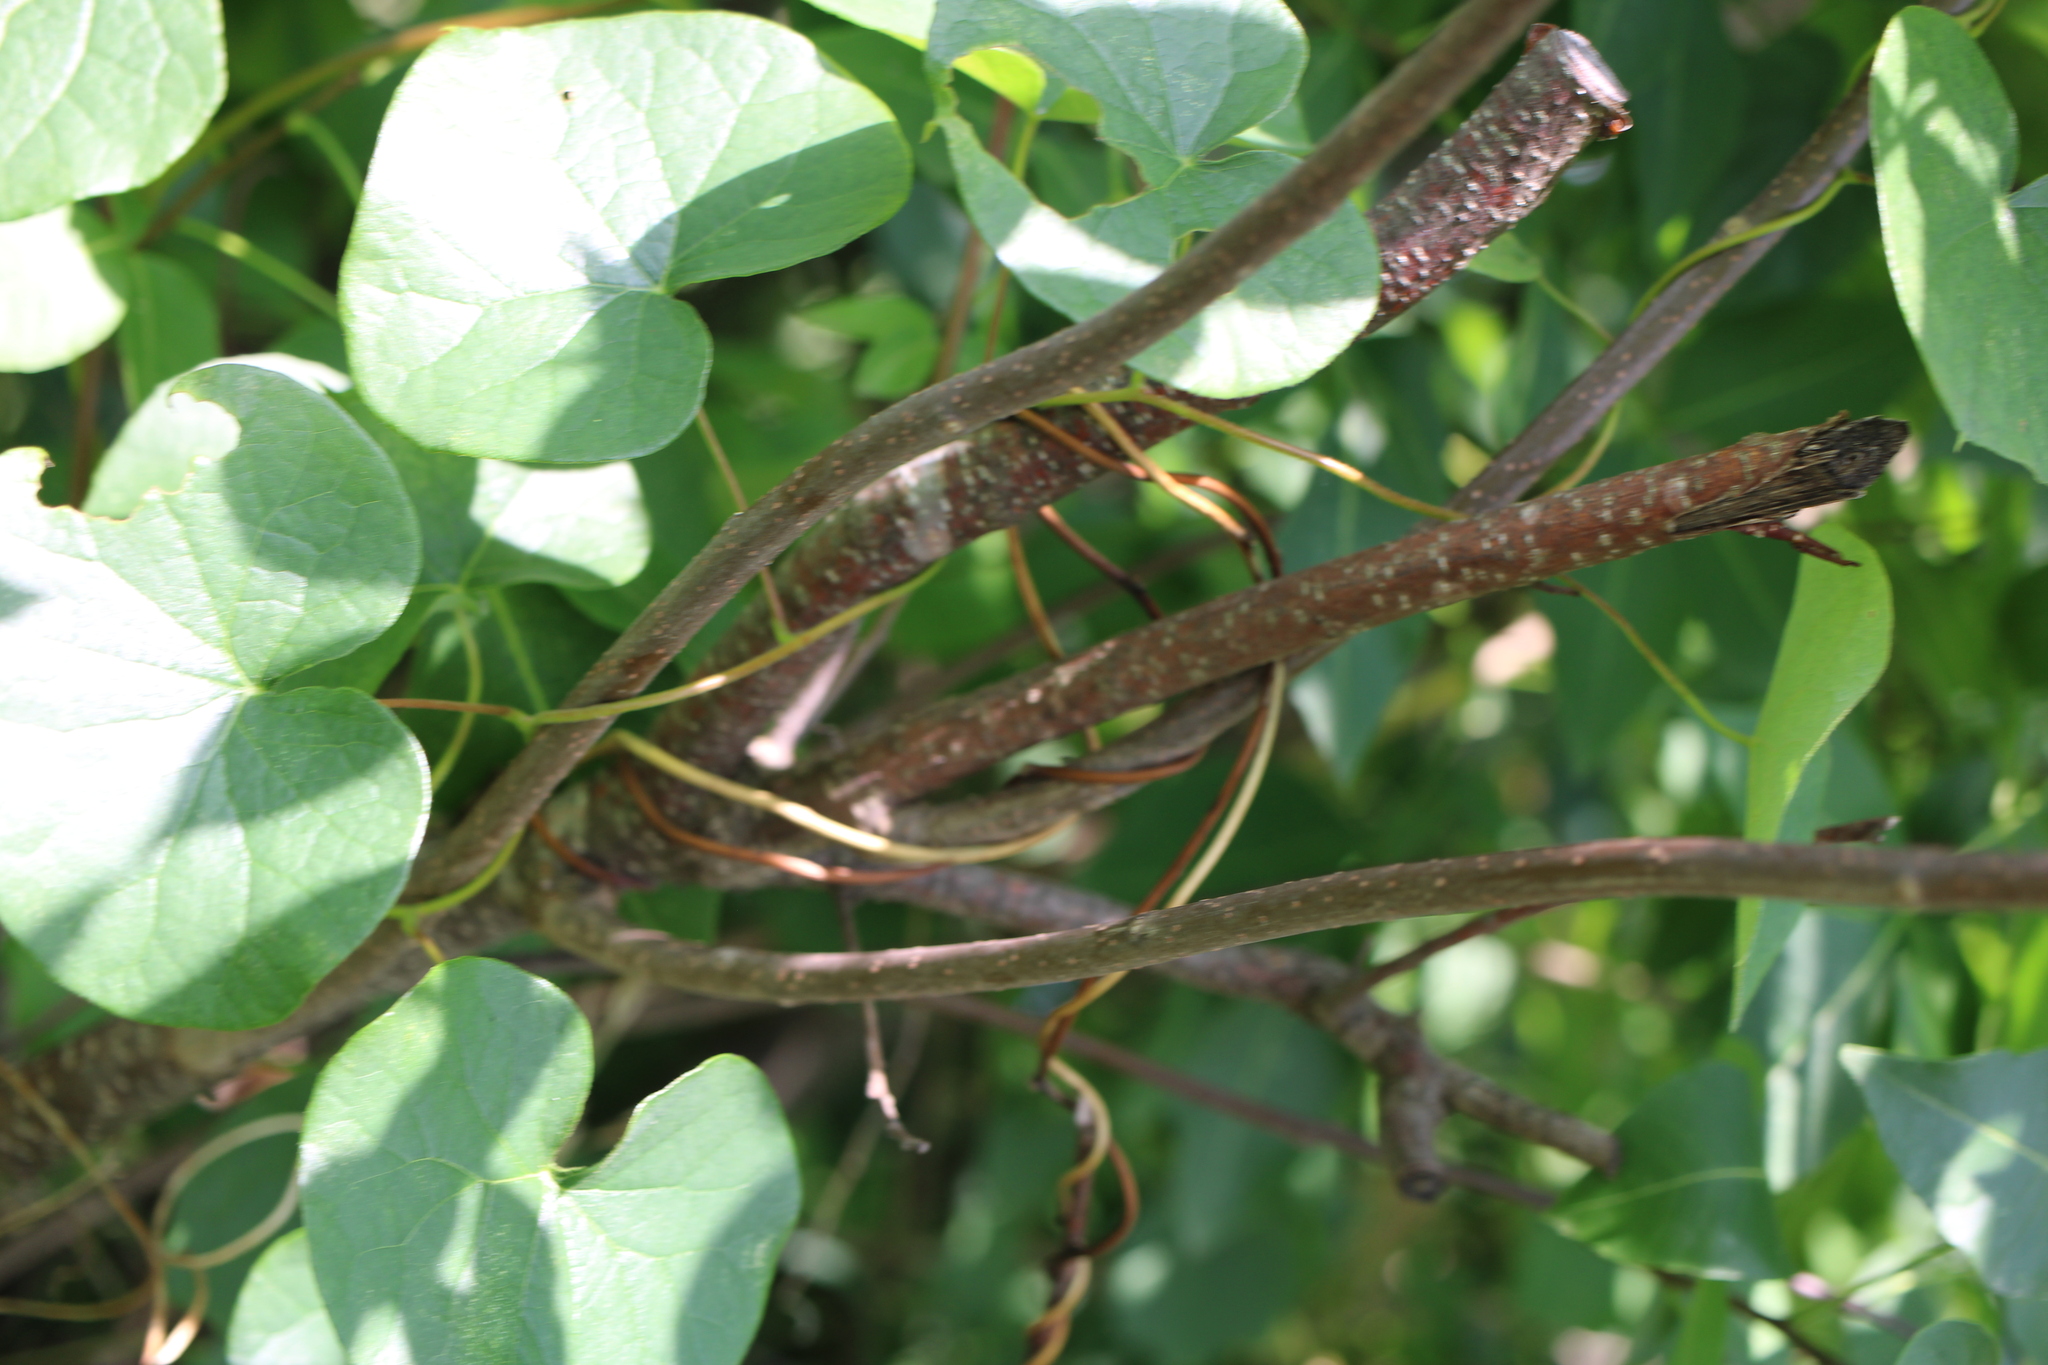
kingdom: Plantae
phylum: Tracheophyta
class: Magnoliopsida
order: Sapindales
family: Rutaceae
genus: Ptelea
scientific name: Ptelea trifoliata
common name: Common hop-tree
